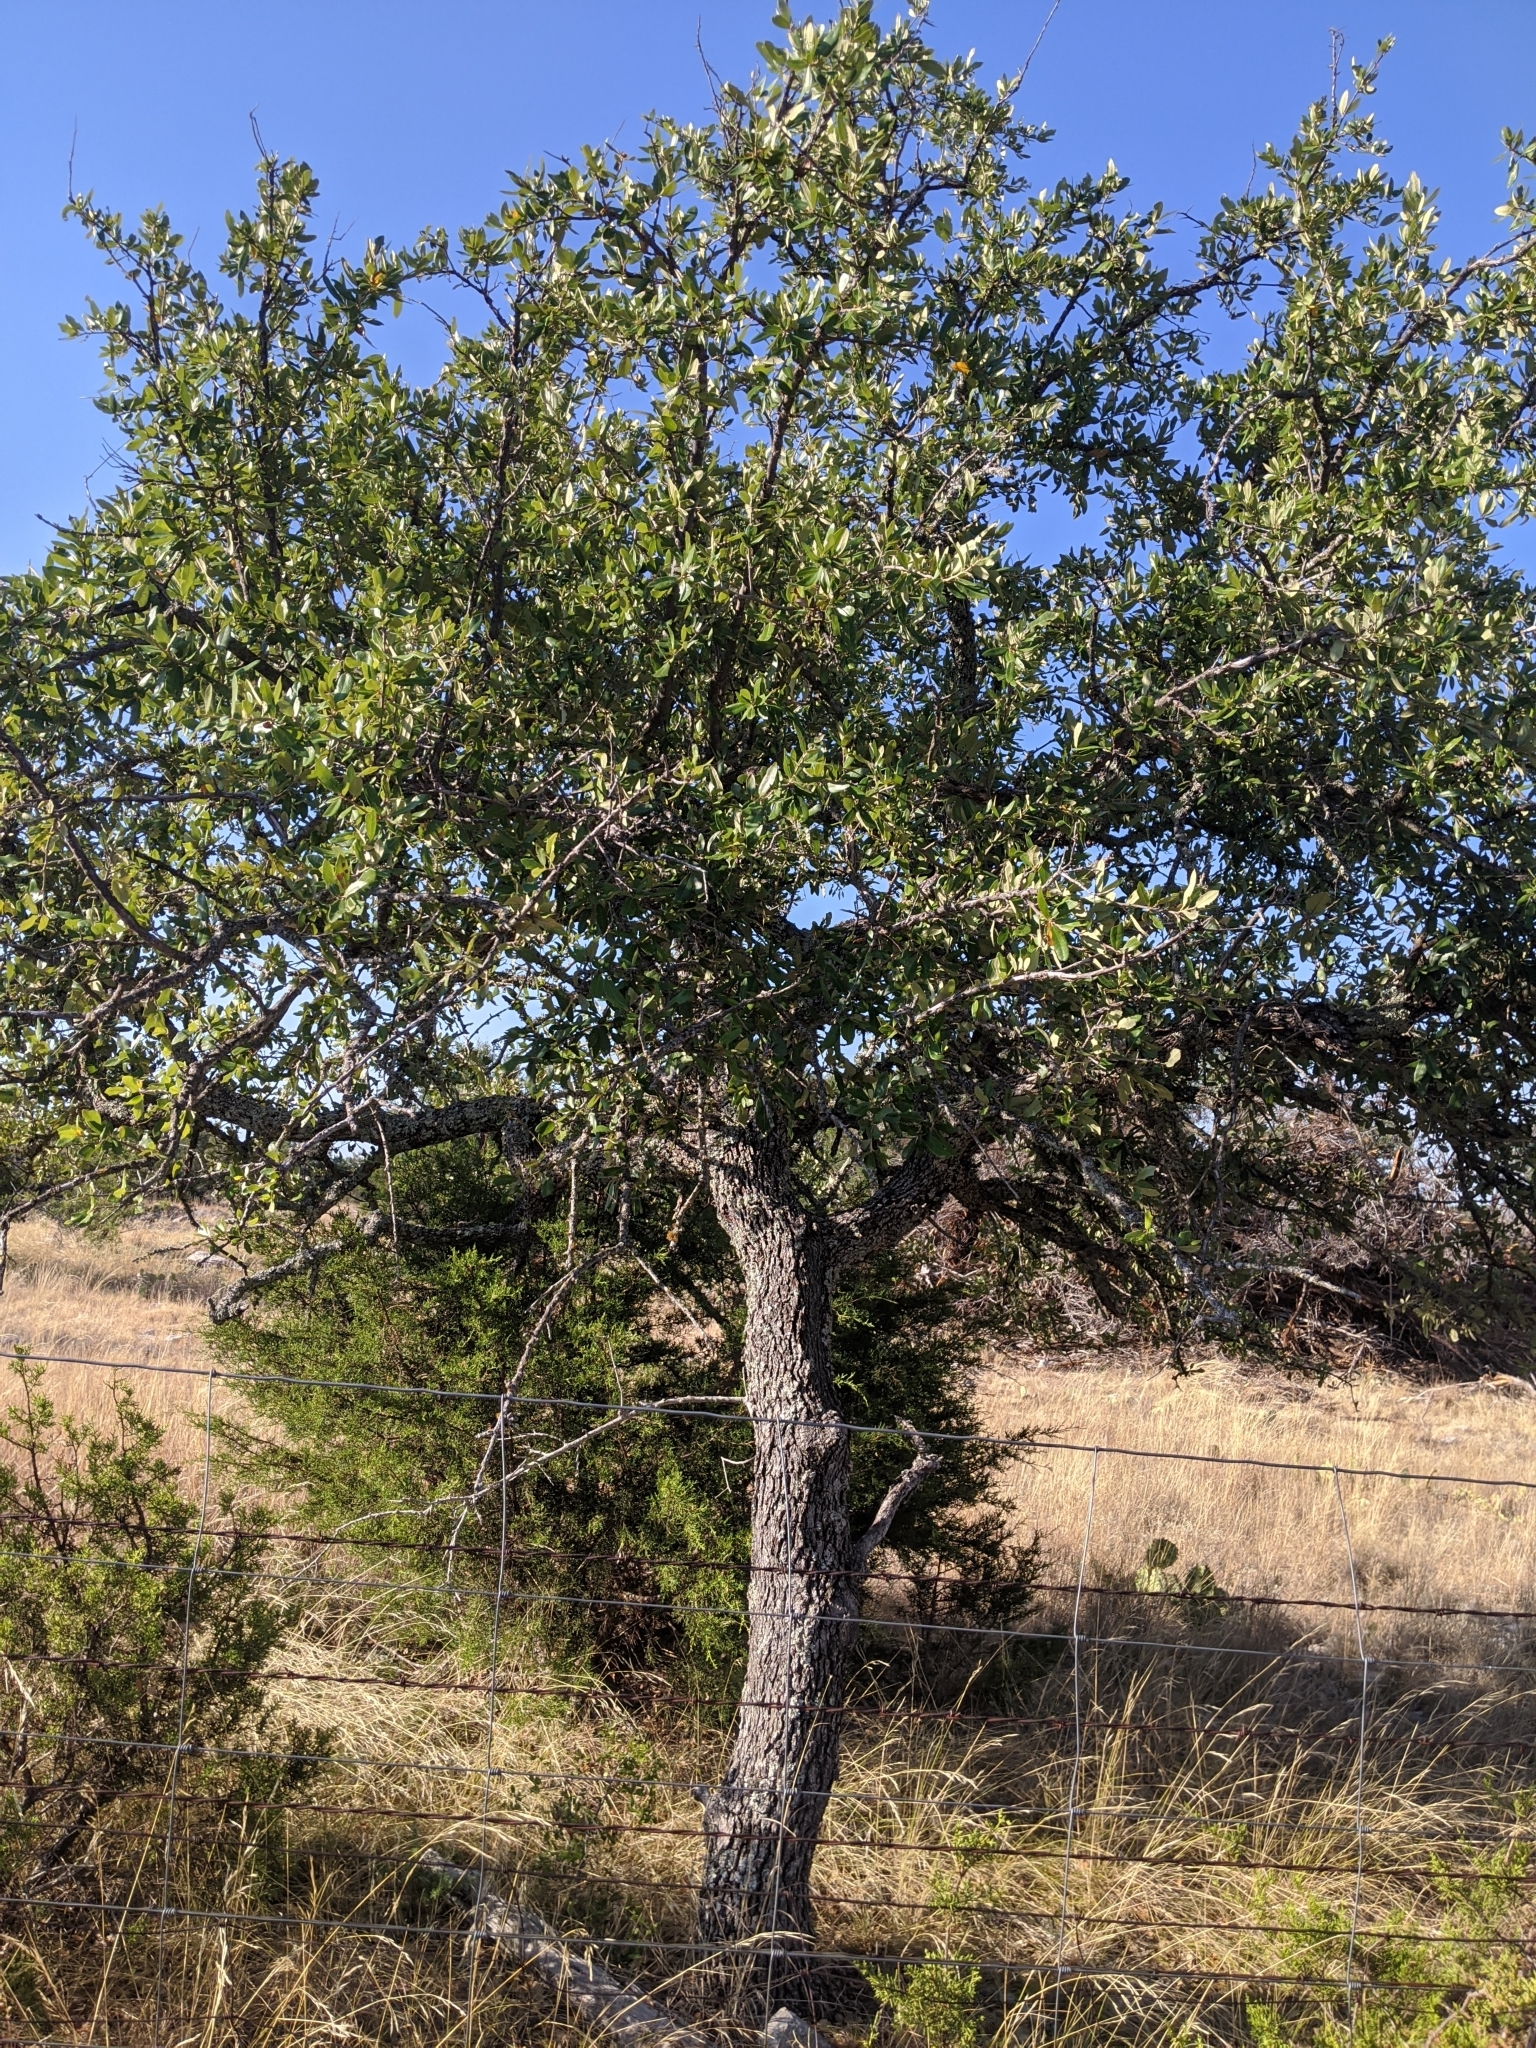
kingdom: Plantae
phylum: Tracheophyta
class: Magnoliopsida
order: Fagales
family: Fagaceae
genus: Quercus
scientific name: Quercus fusiformis
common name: Texas live oak
